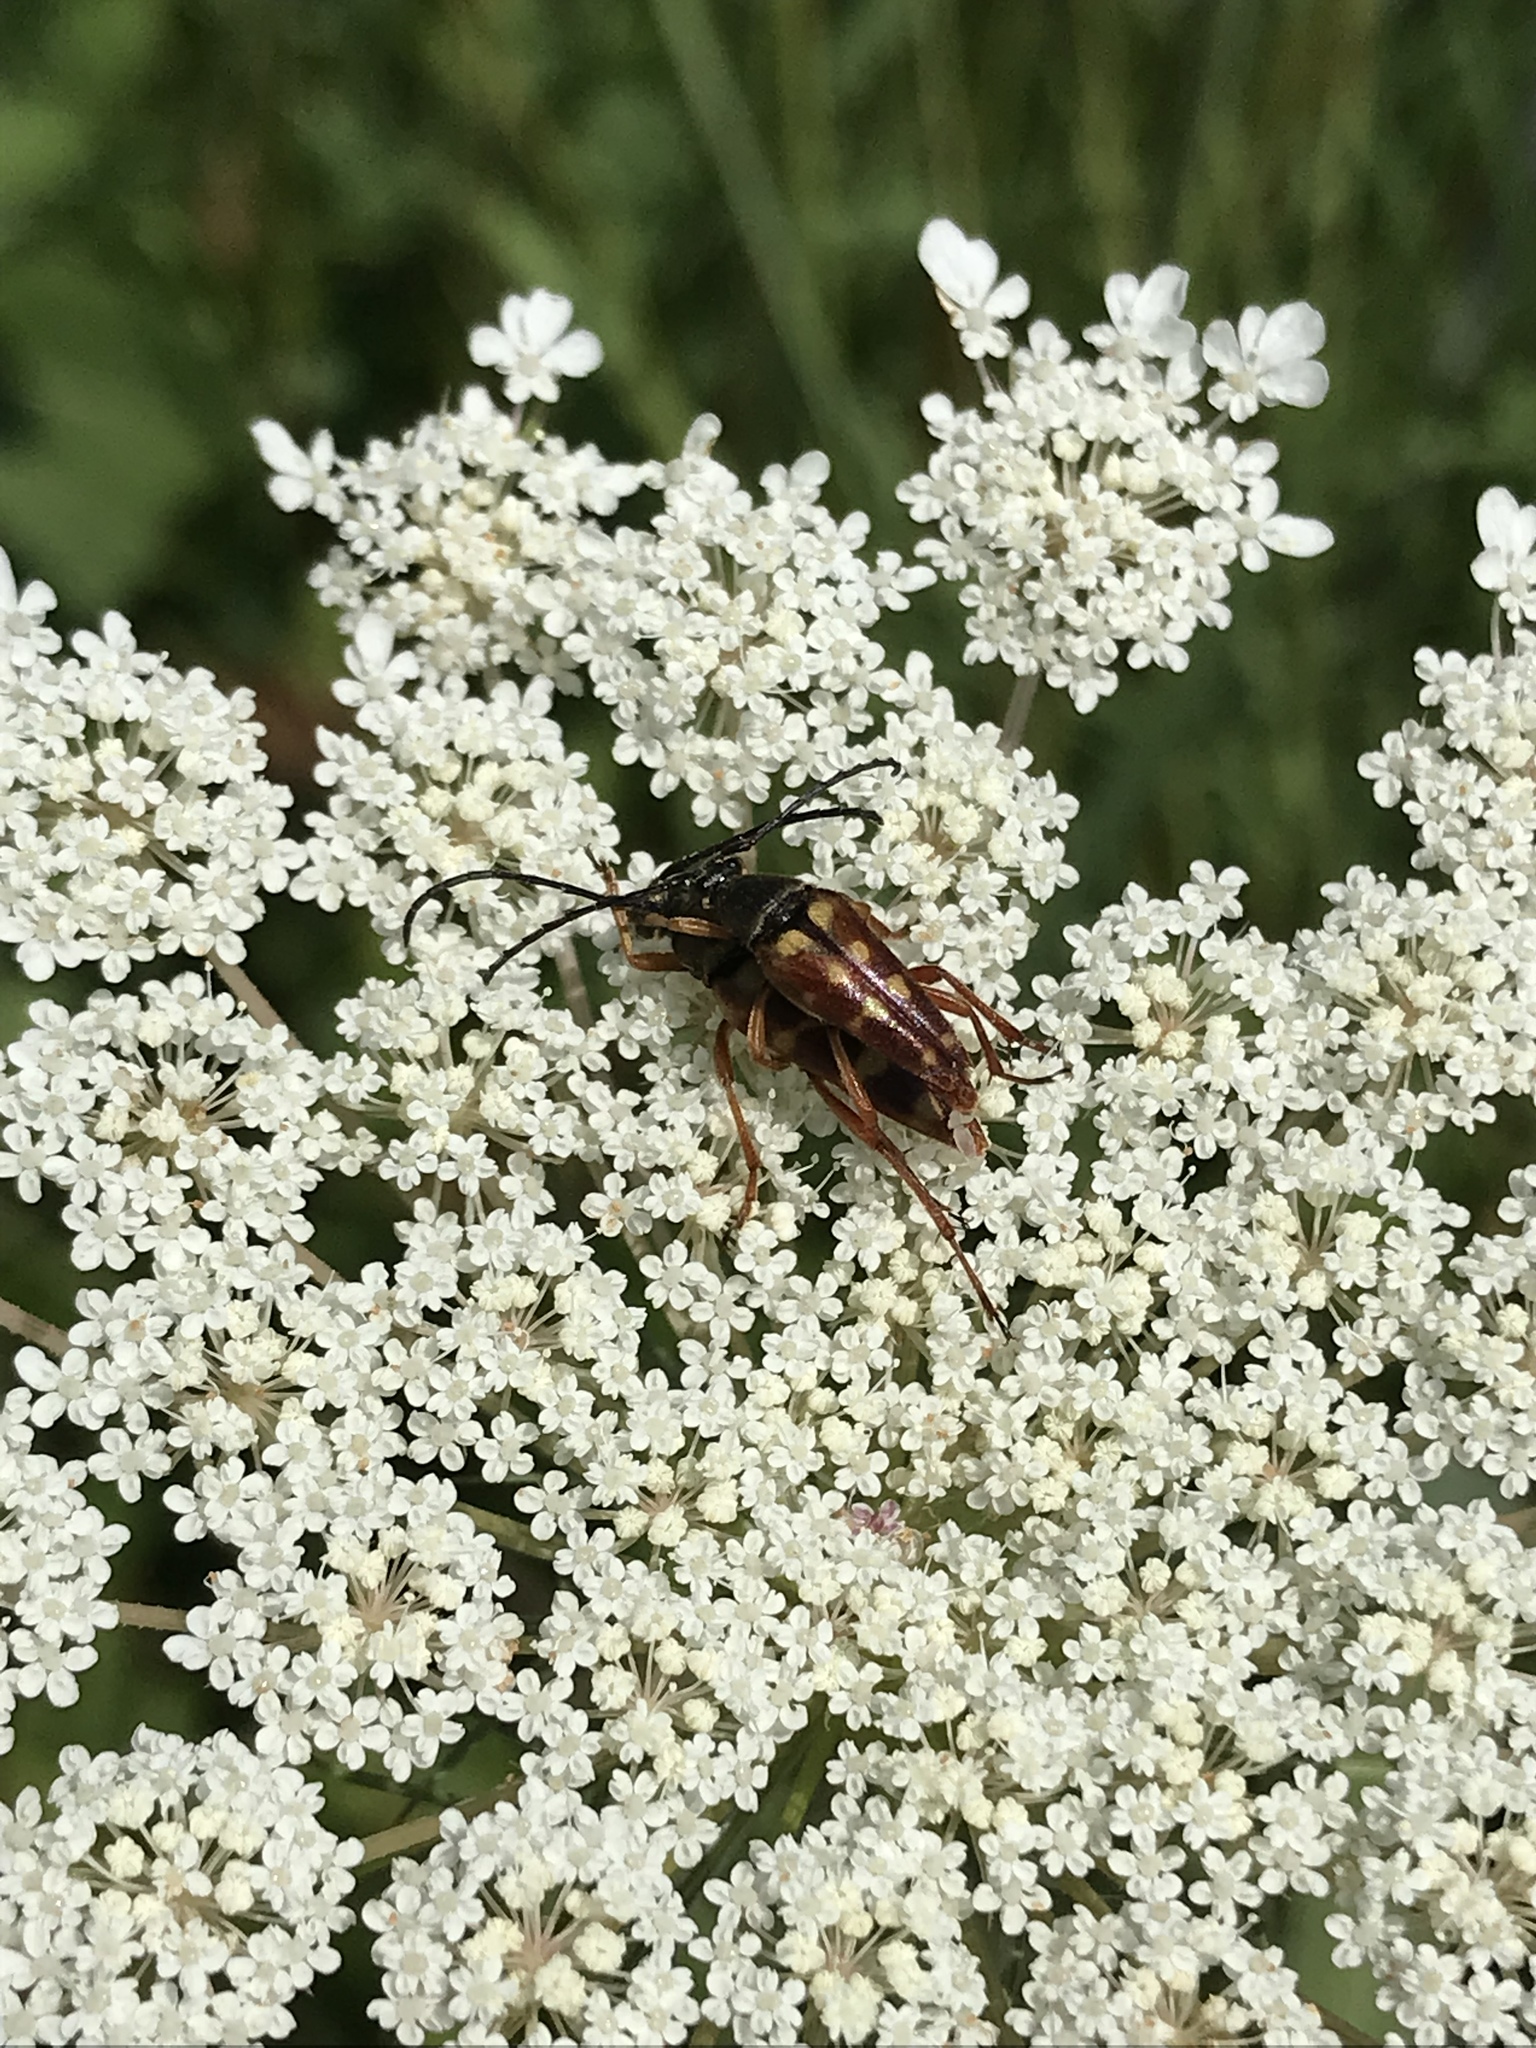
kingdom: Animalia
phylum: Arthropoda
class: Insecta
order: Coleoptera
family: Cerambycidae
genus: Typocerus
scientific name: Typocerus velutinus
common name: Banded longhorn beetle
